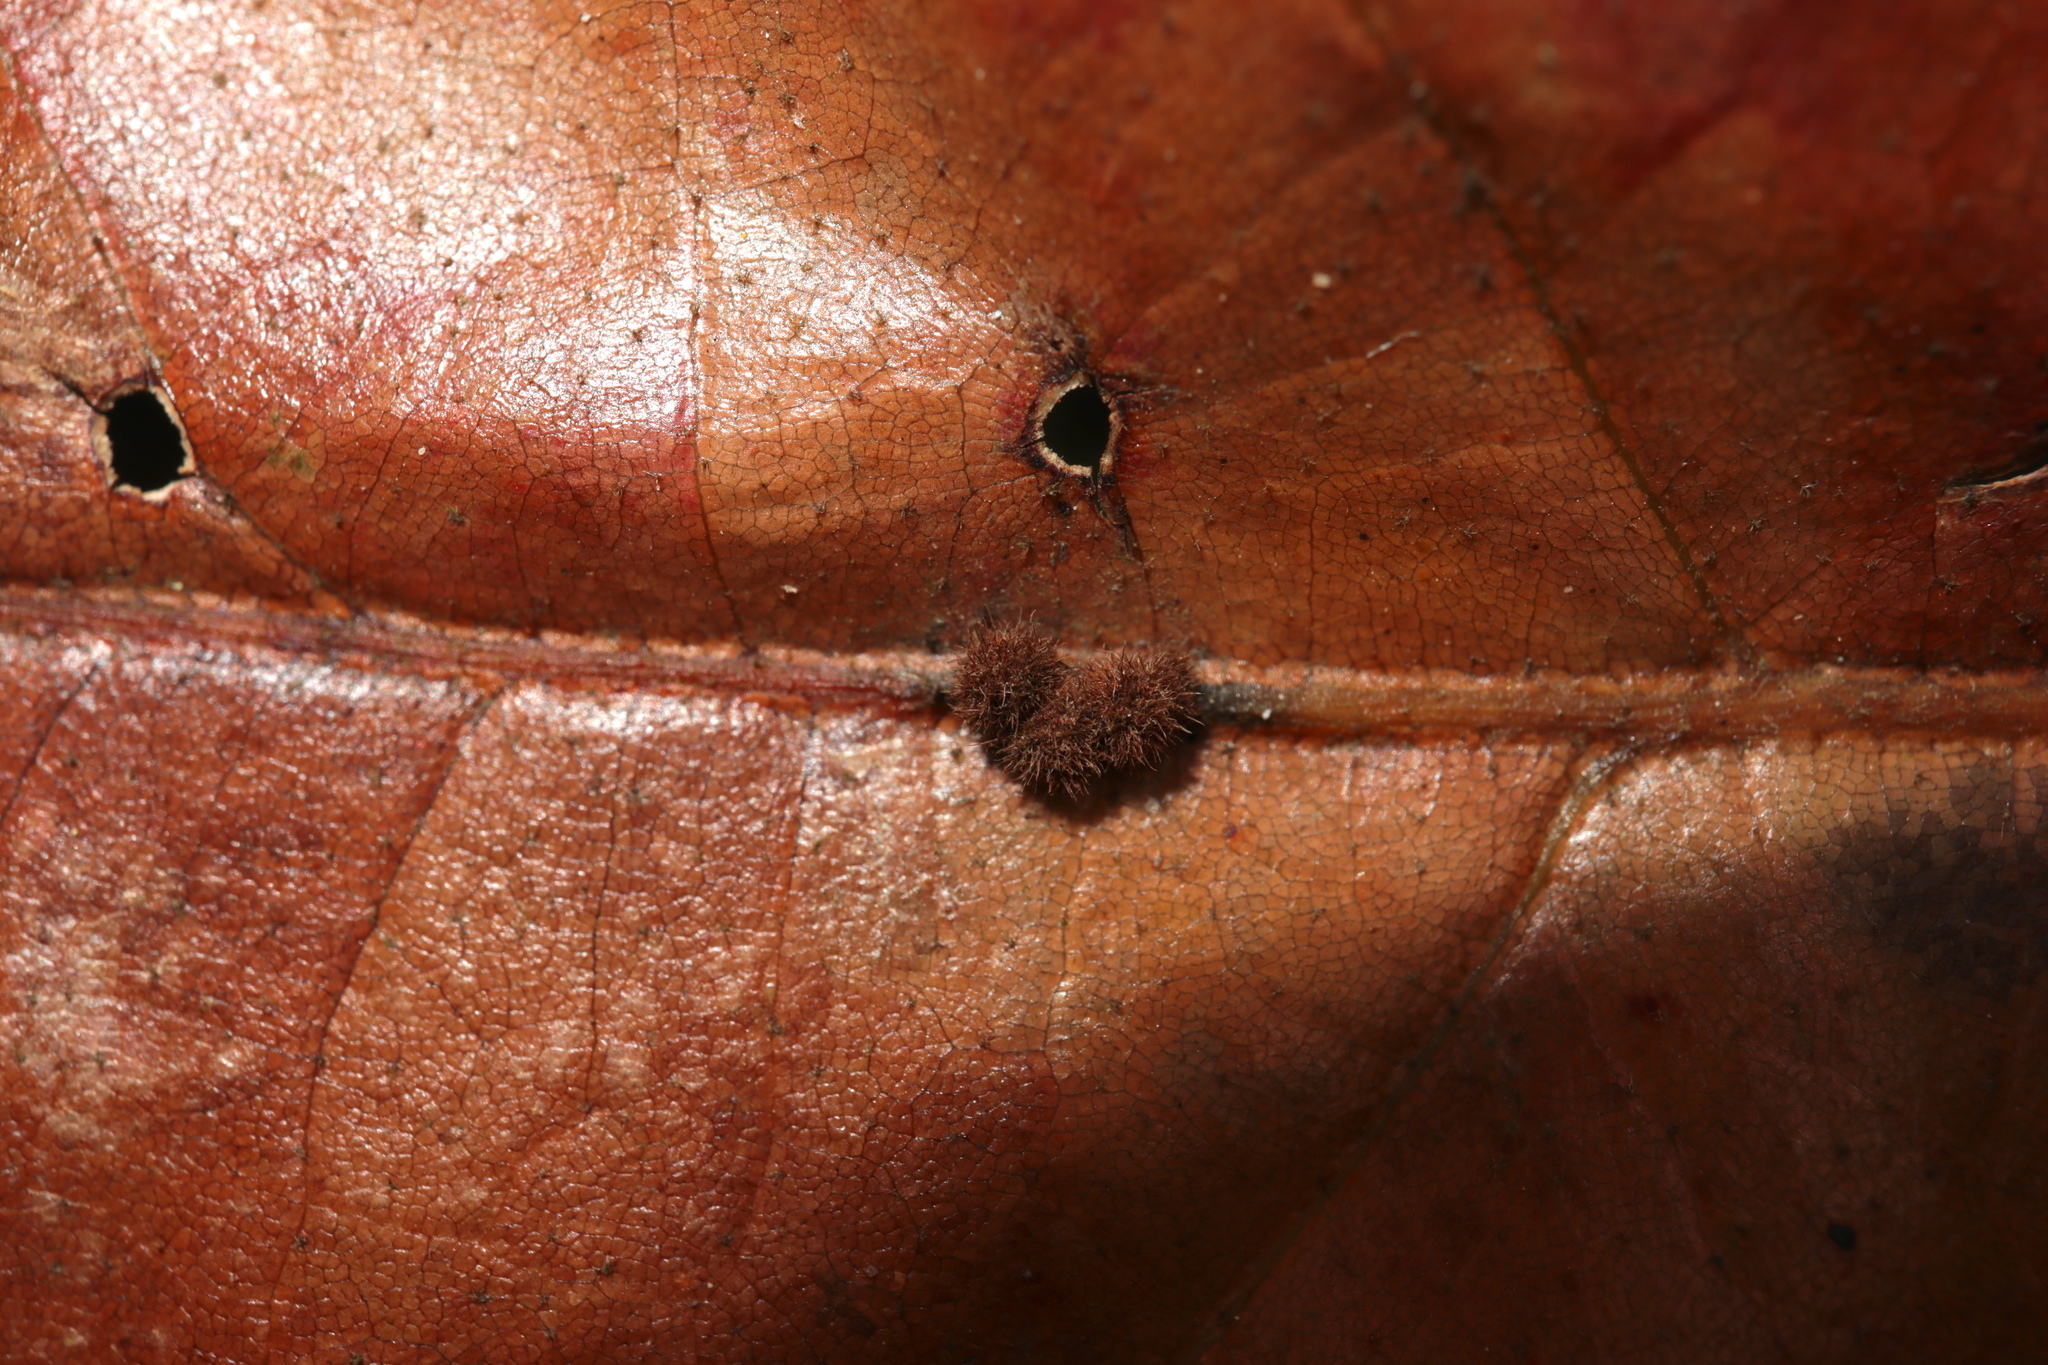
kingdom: Animalia
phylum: Arthropoda
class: Insecta
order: Hymenoptera
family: Cynipidae
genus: Biorhiza
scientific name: Biorhiza Sphaeroteras carolina
